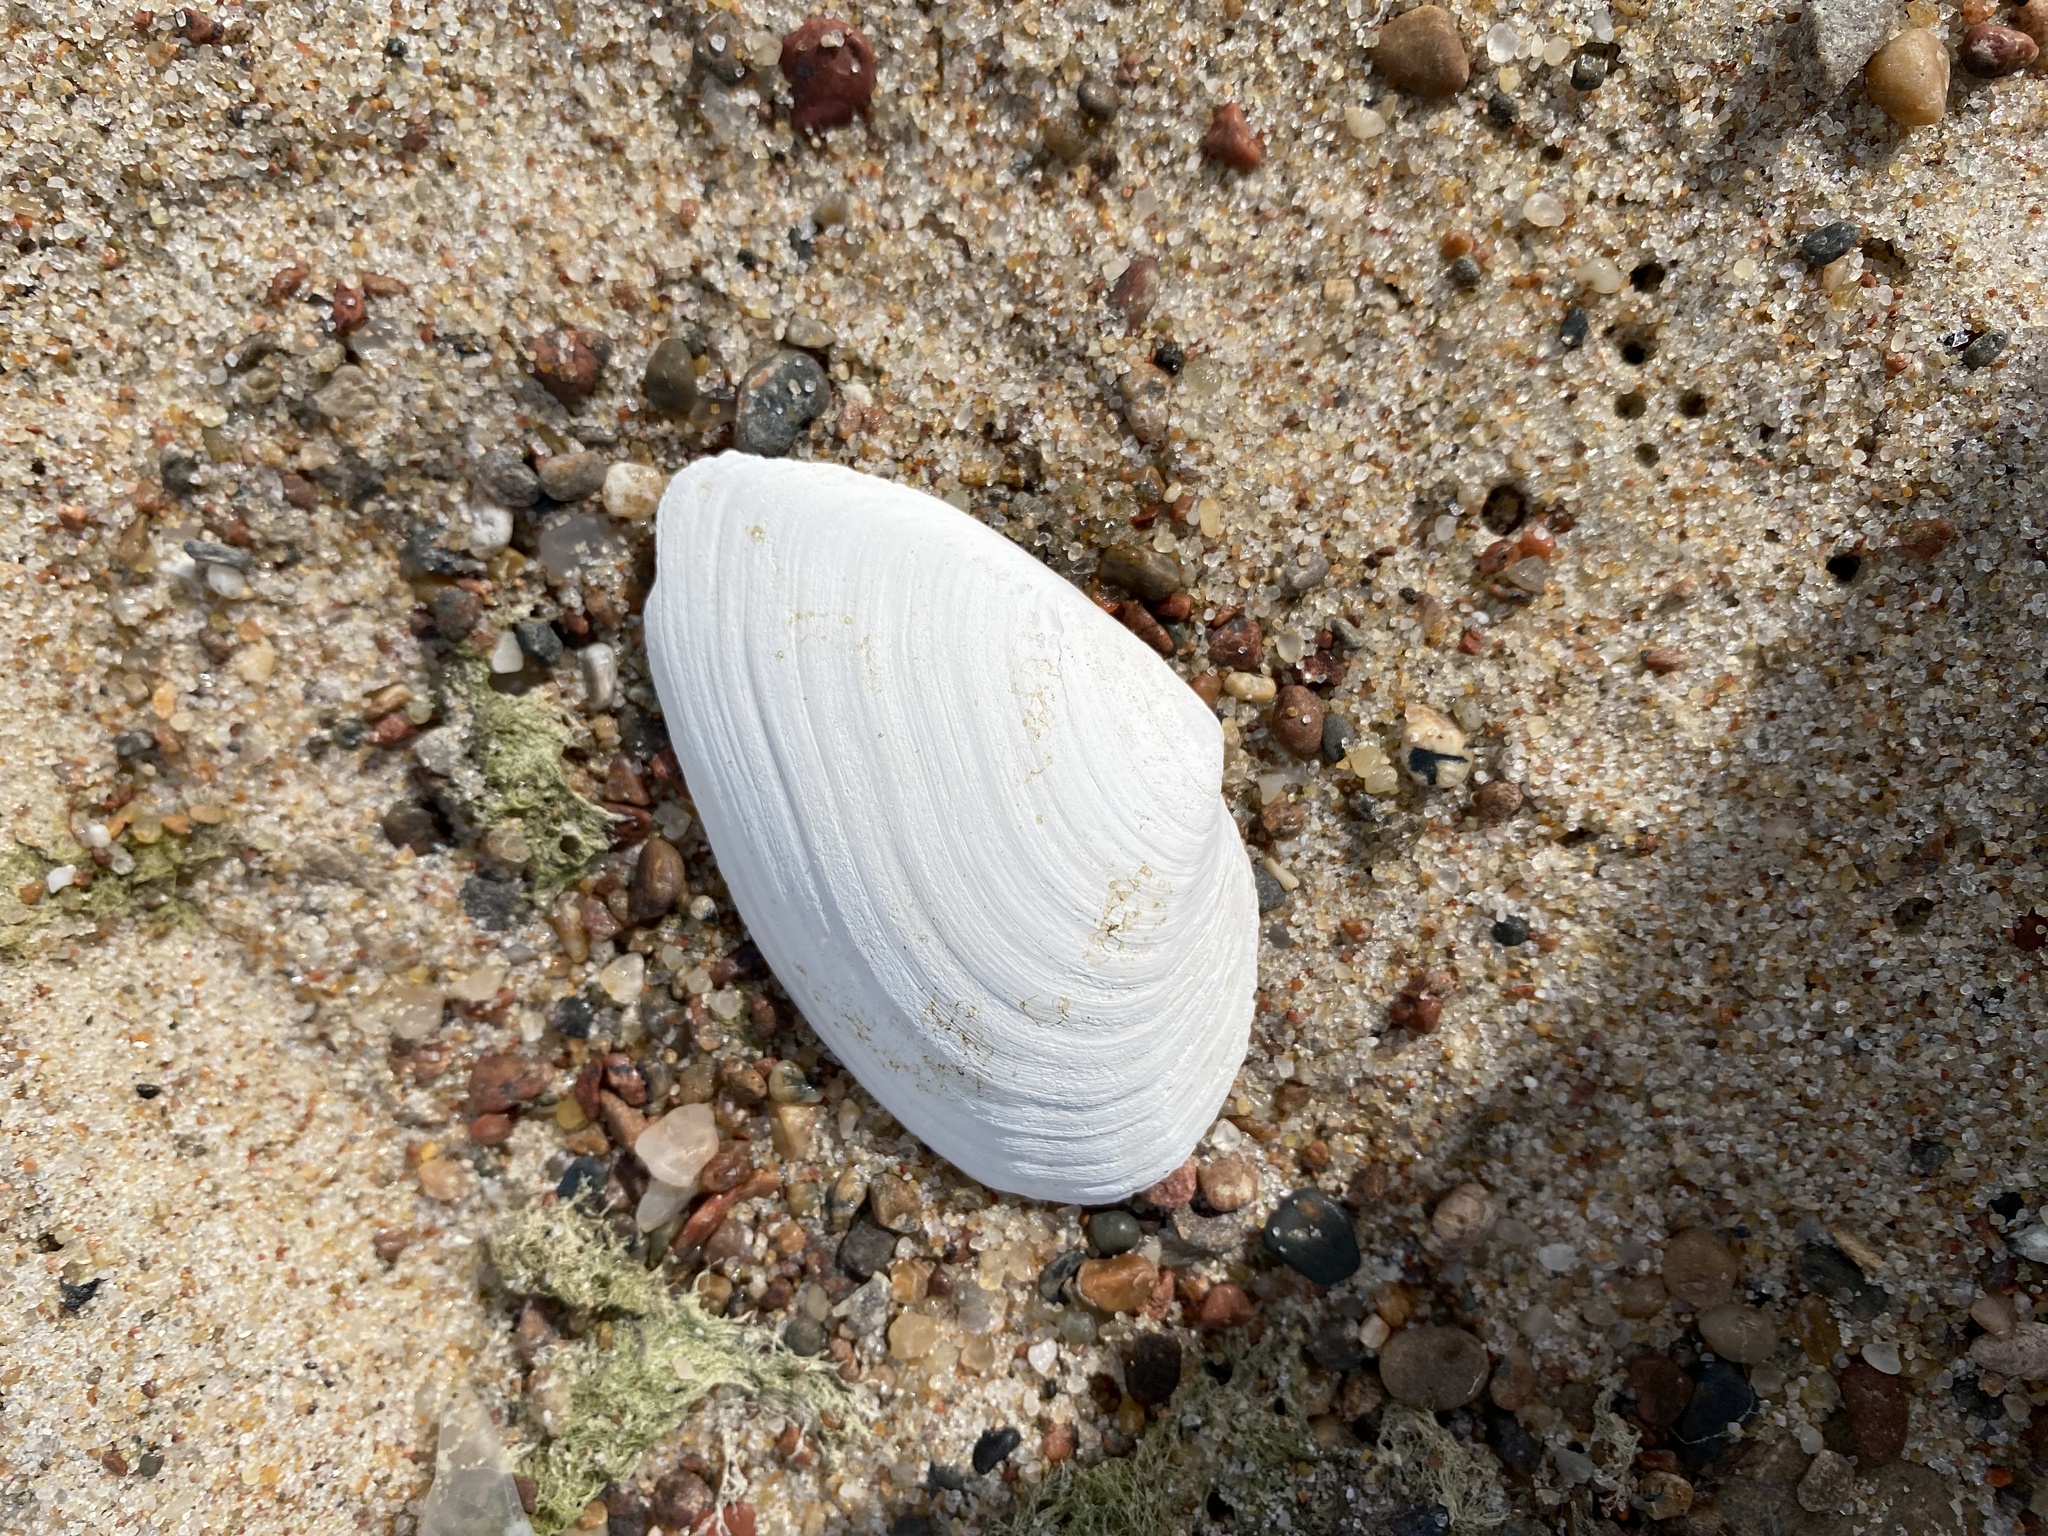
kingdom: Animalia
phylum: Mollusca
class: Bivalvia
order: Myida
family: Myidae
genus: Mya
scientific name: Mya arenaria
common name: Soft-shelled clam
